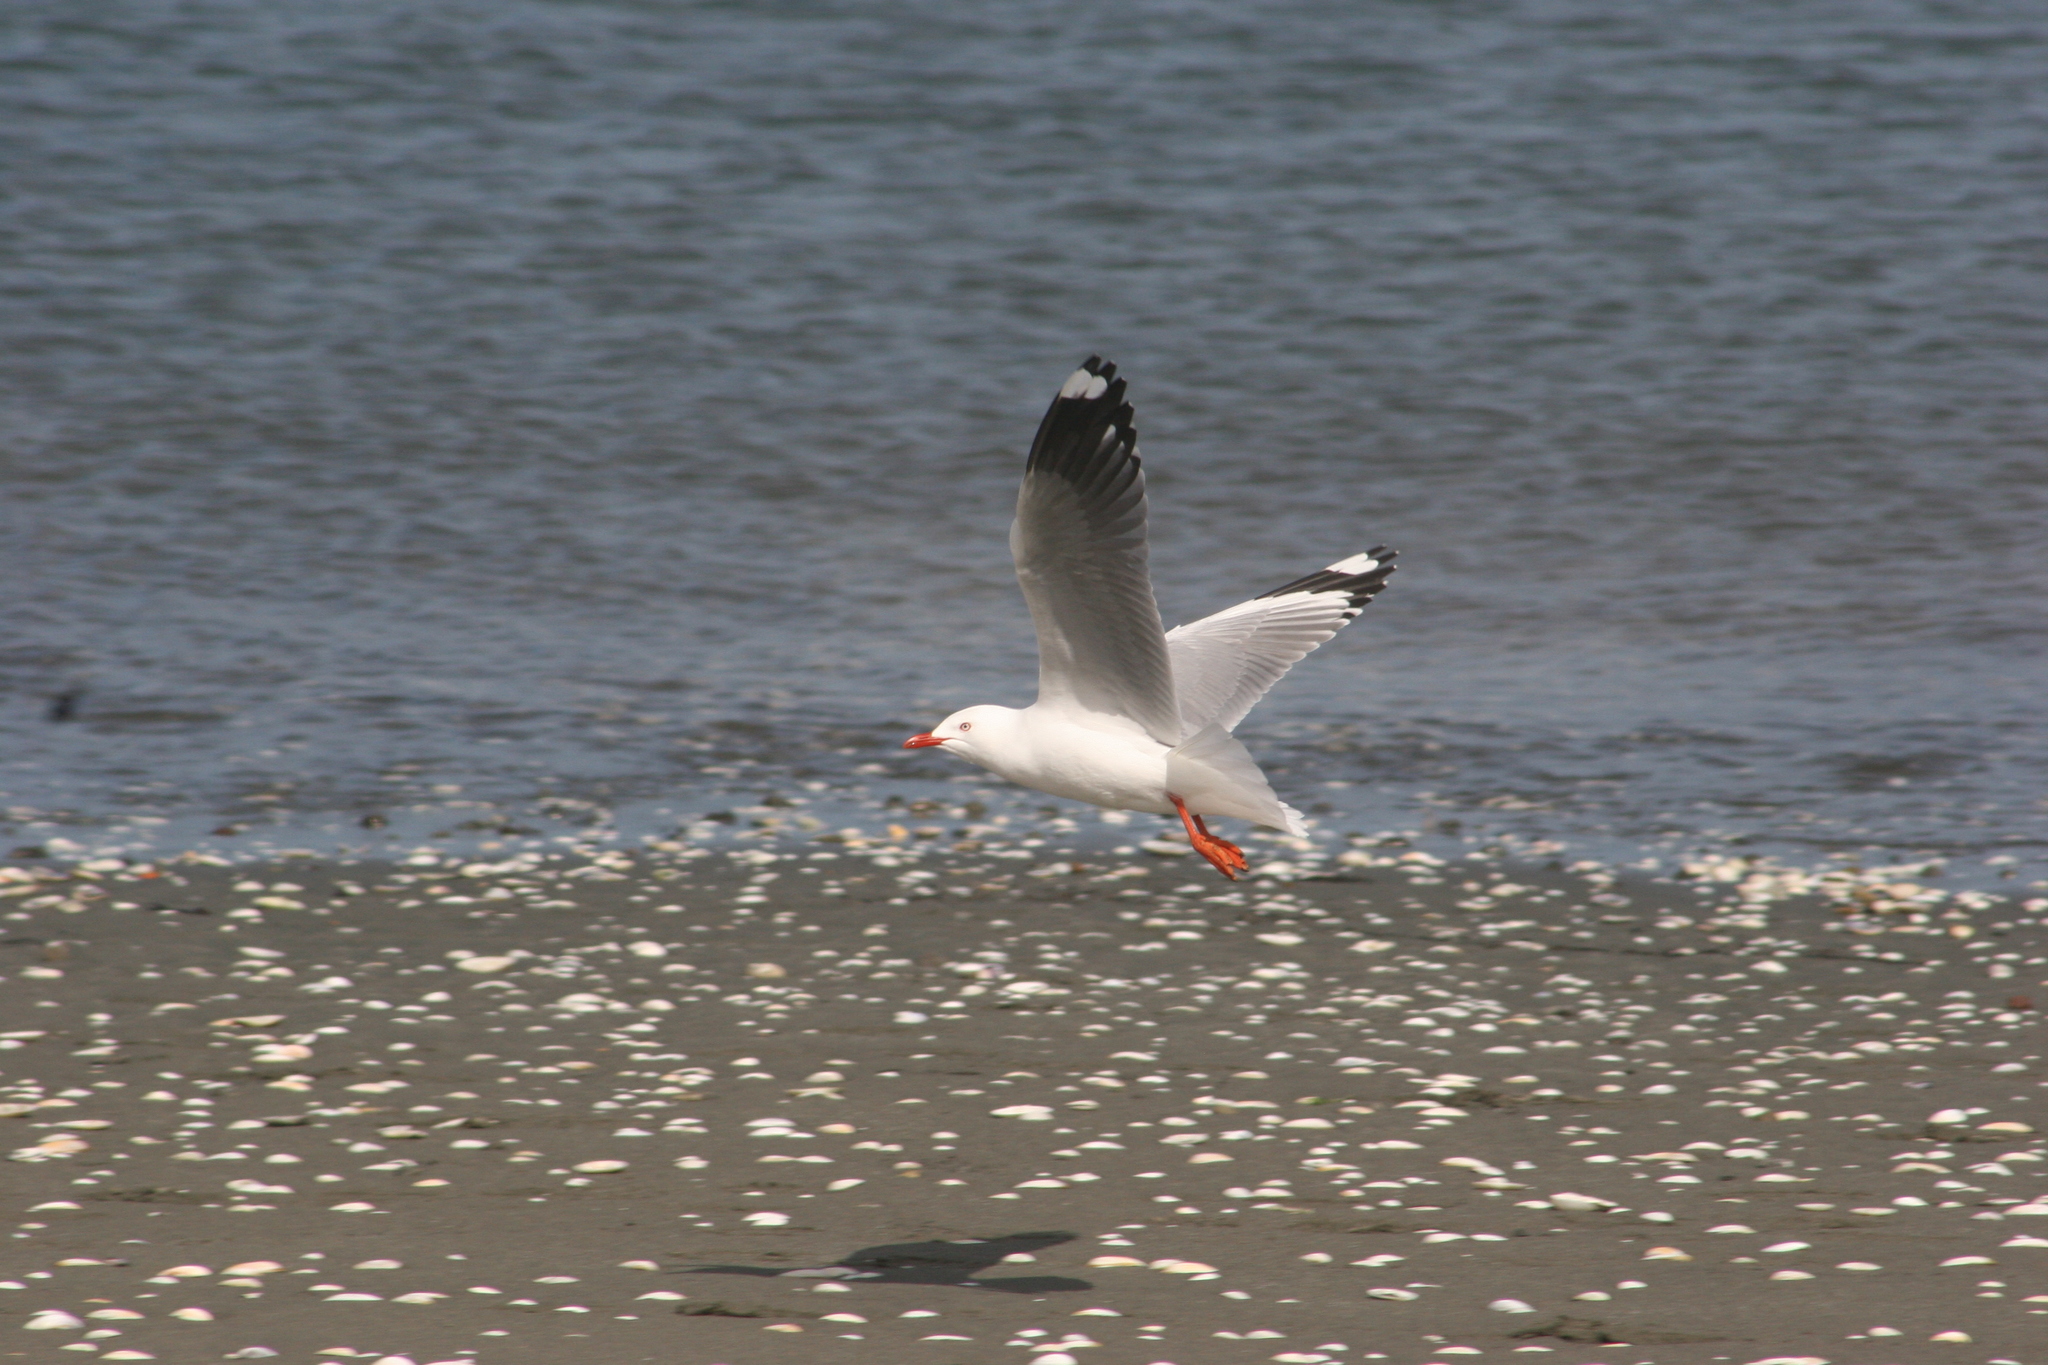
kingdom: Animalia
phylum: Chordata
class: Aves
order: Charadriiformes
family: Laridae
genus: Chroicocephalus
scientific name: Chroicocephalus novaehollandiae
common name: Silver gull
